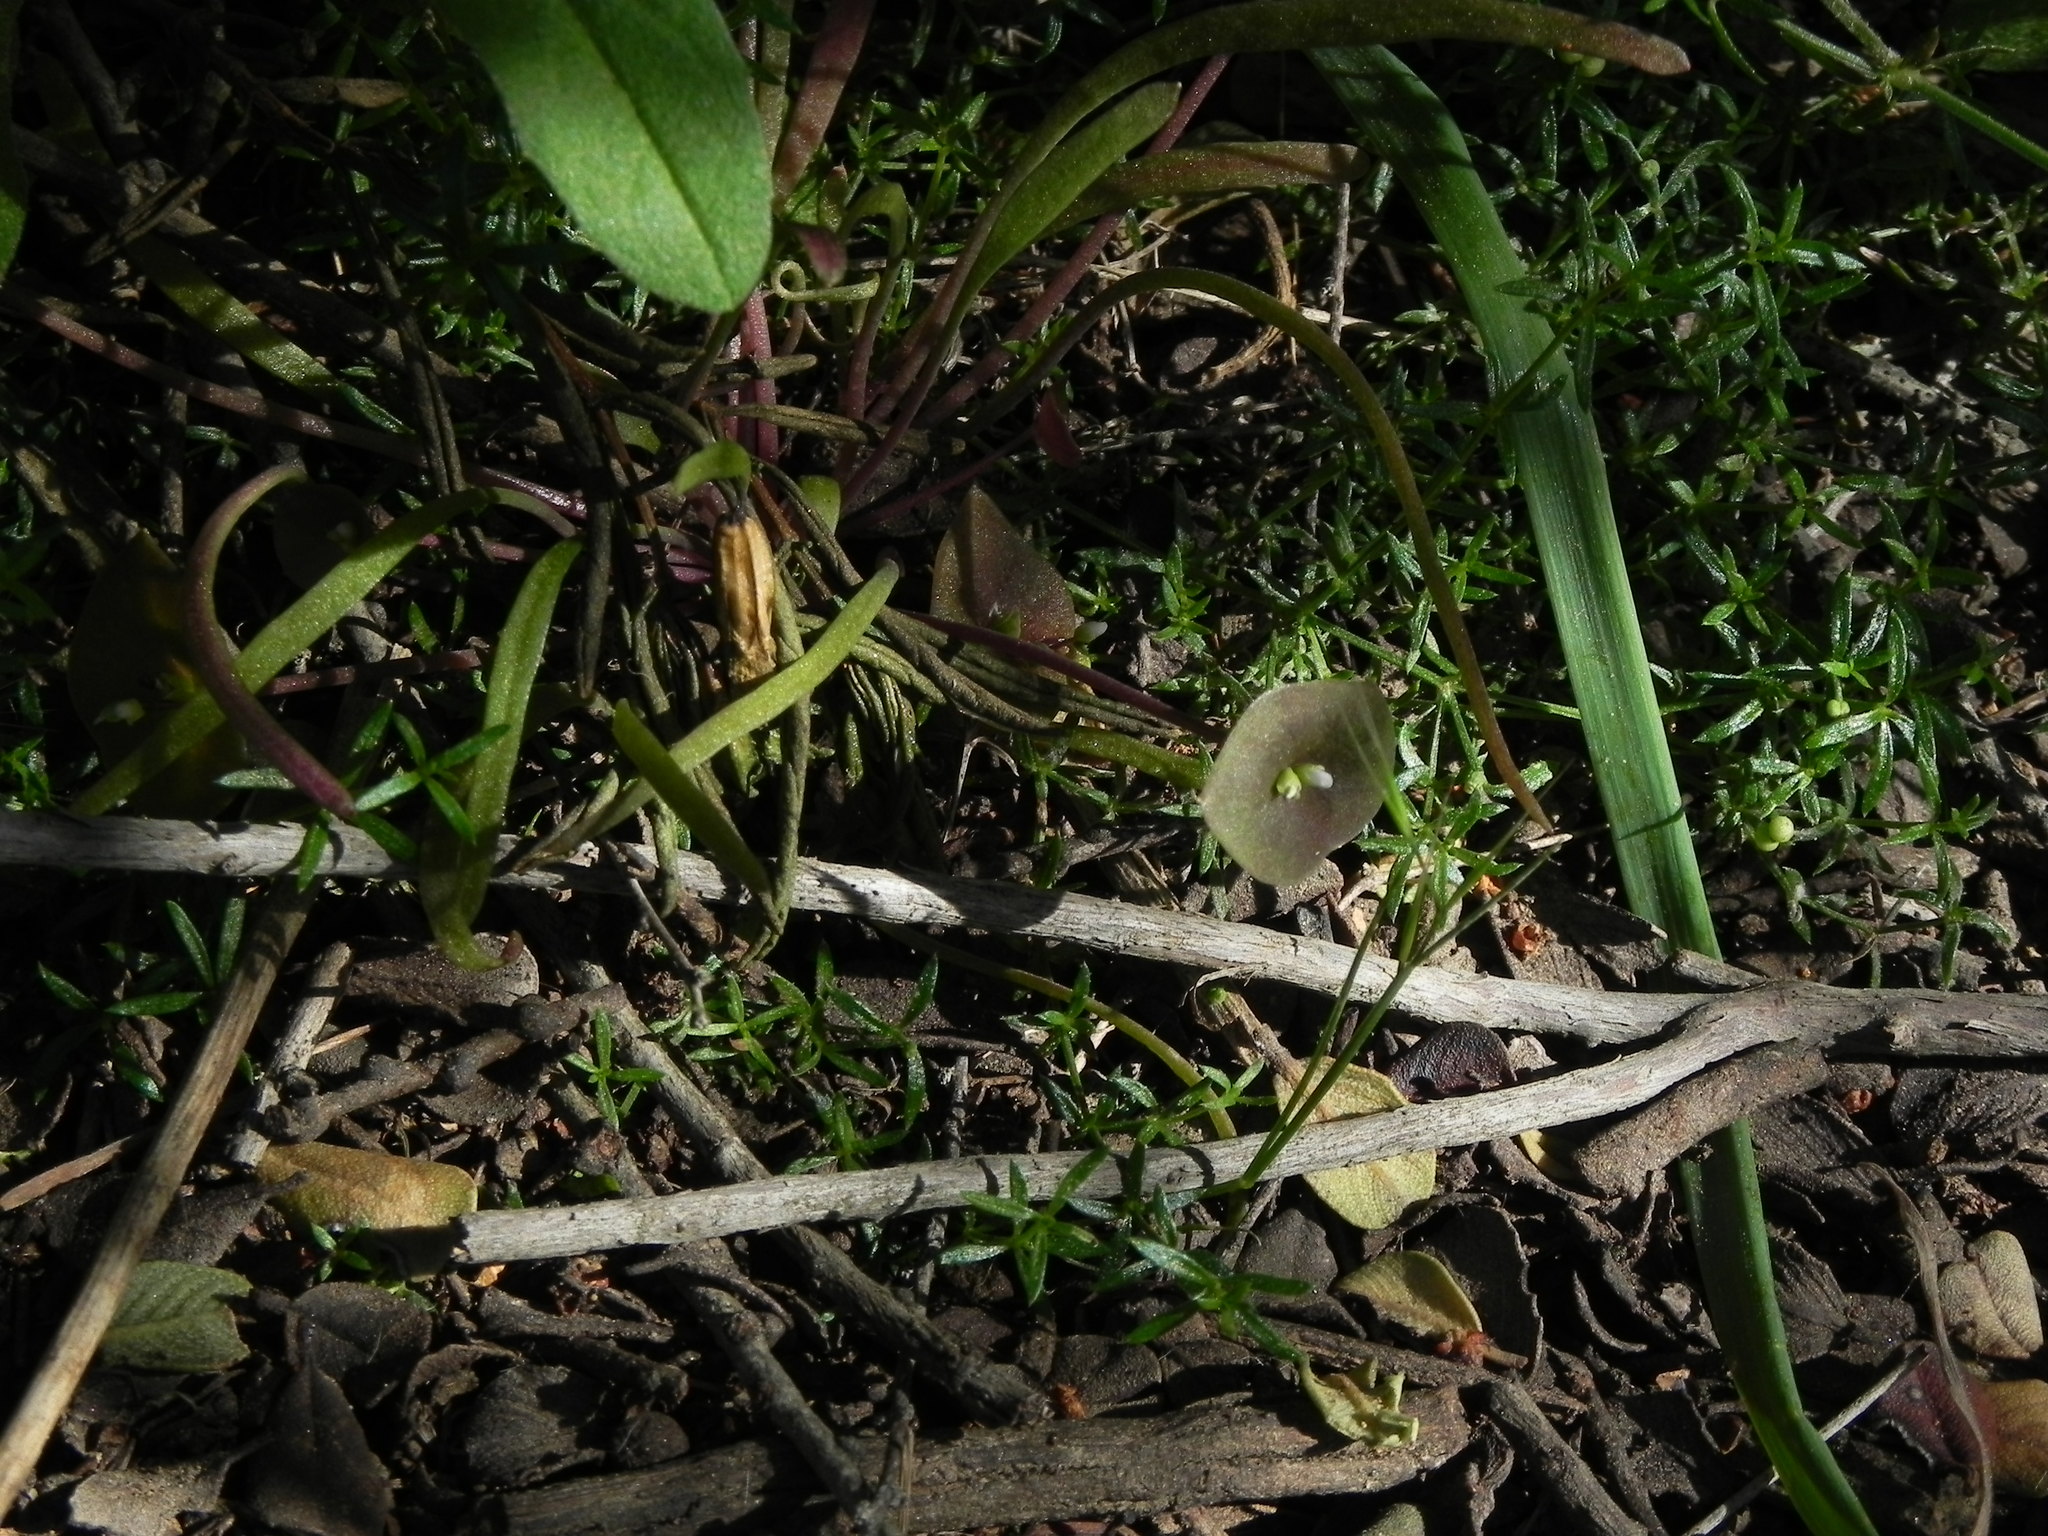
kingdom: Plantae
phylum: Tracheophyta
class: Magnoliopsida
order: Caryophyllales
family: Montiaceae
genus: Claytonia
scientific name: Claytonia parviflora
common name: Indian-lettuce
